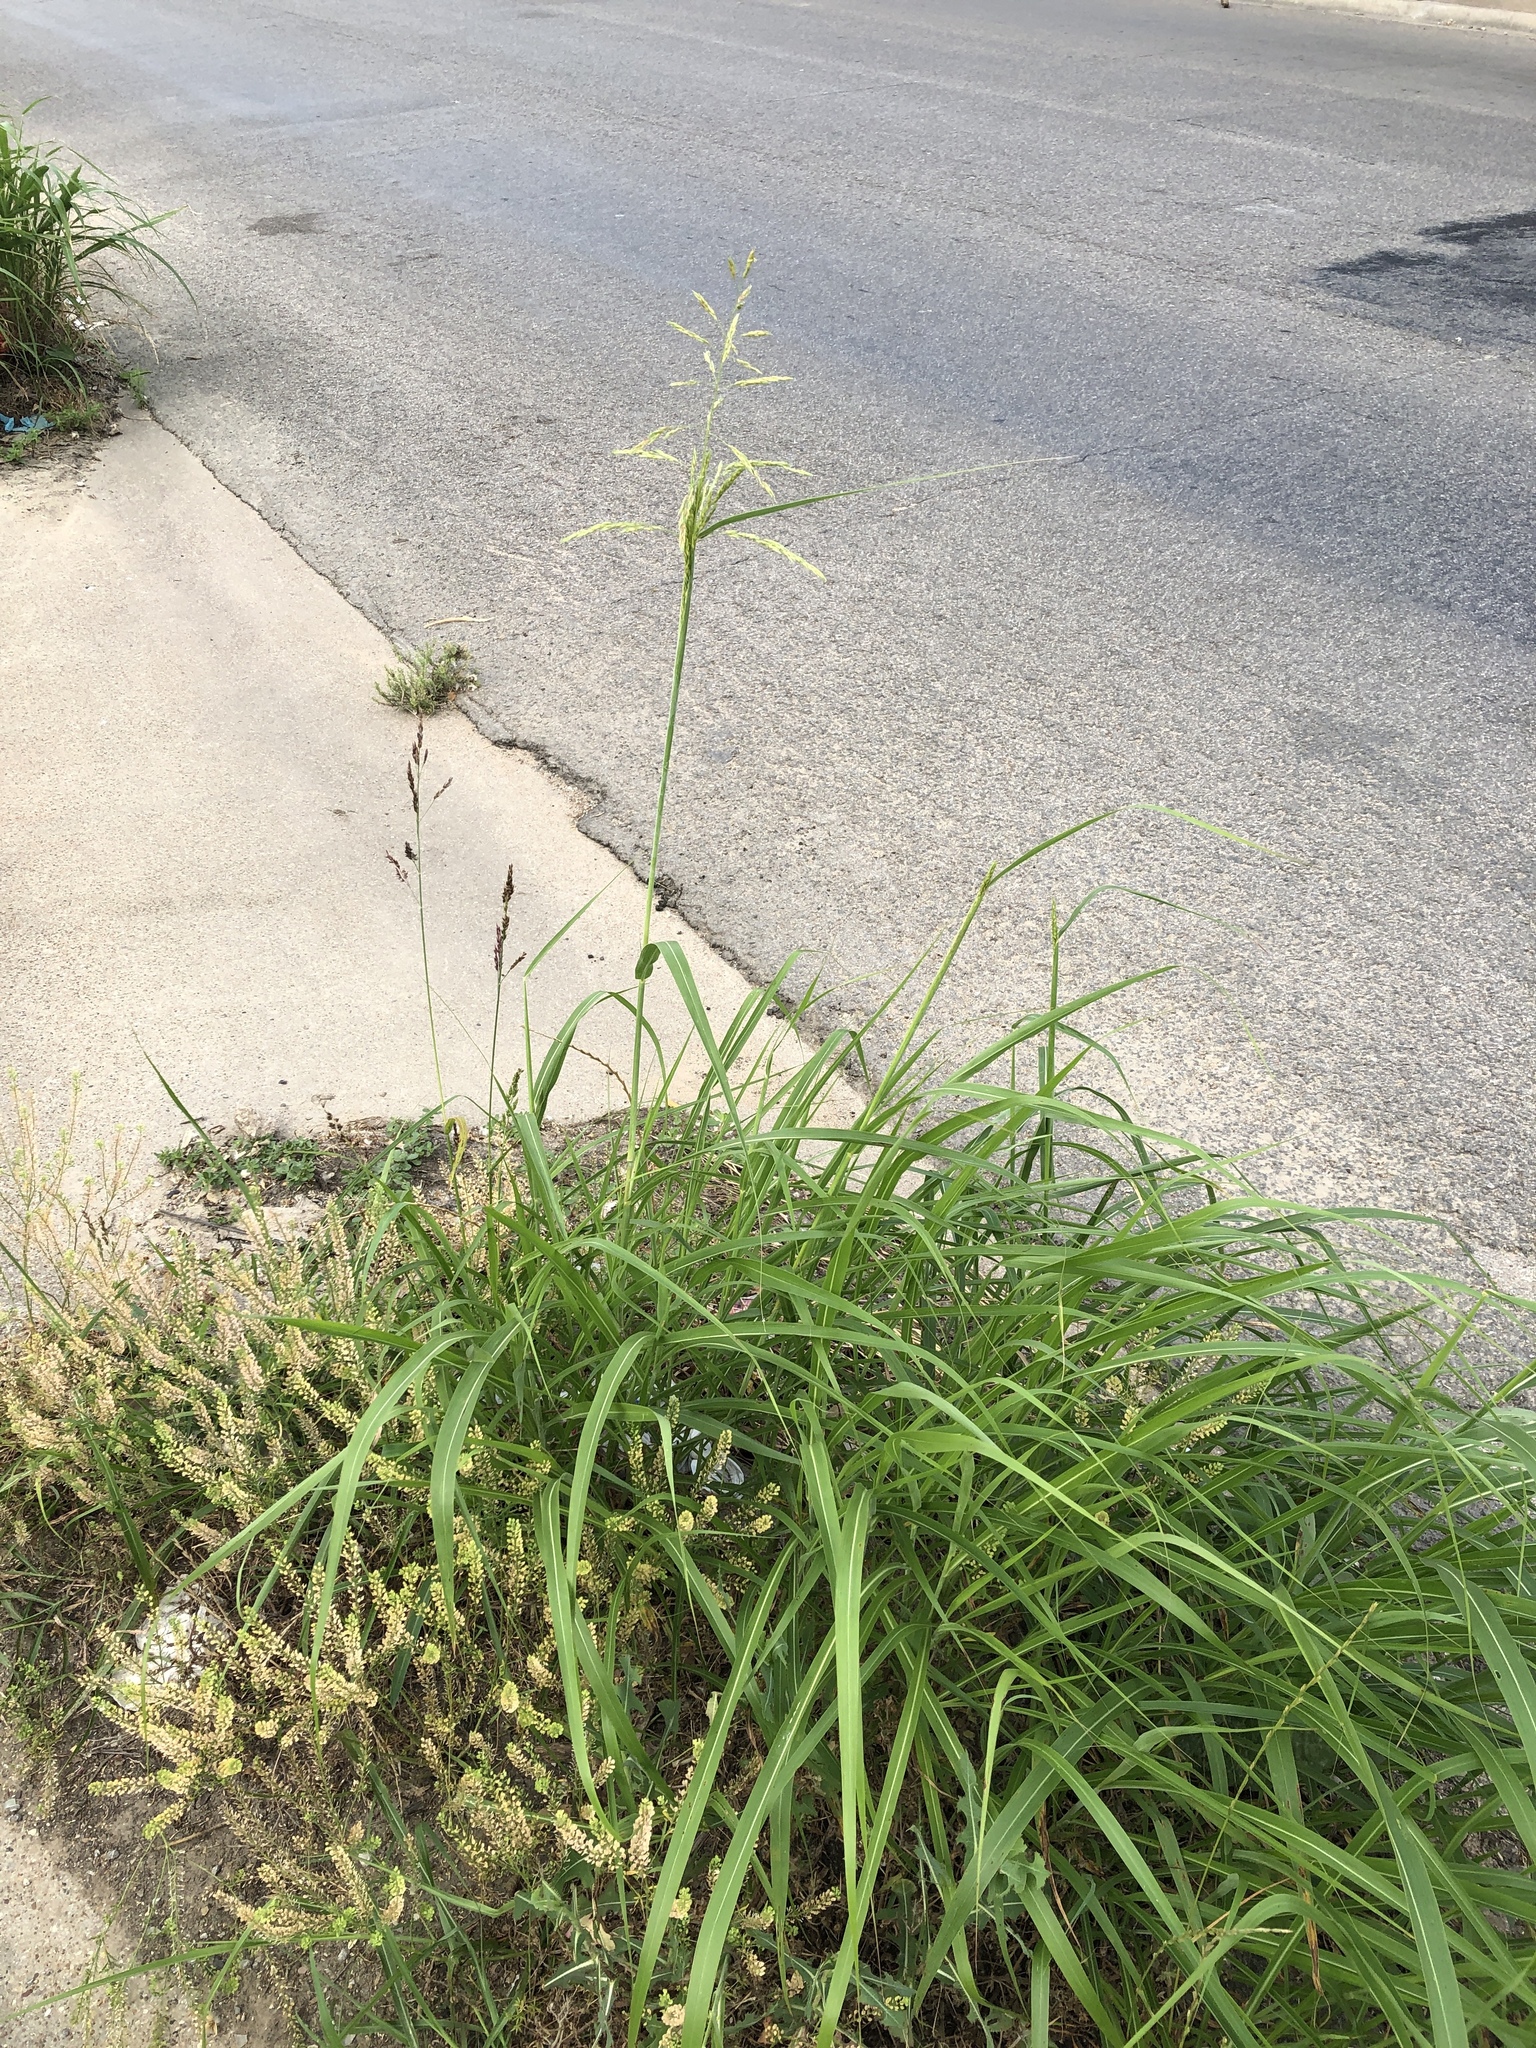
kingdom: Plantae
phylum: Tracheophyta
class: Liliopsida
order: Poales
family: Poaceae
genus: Sorghum
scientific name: Sorghum halepense
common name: Johnson-grass
